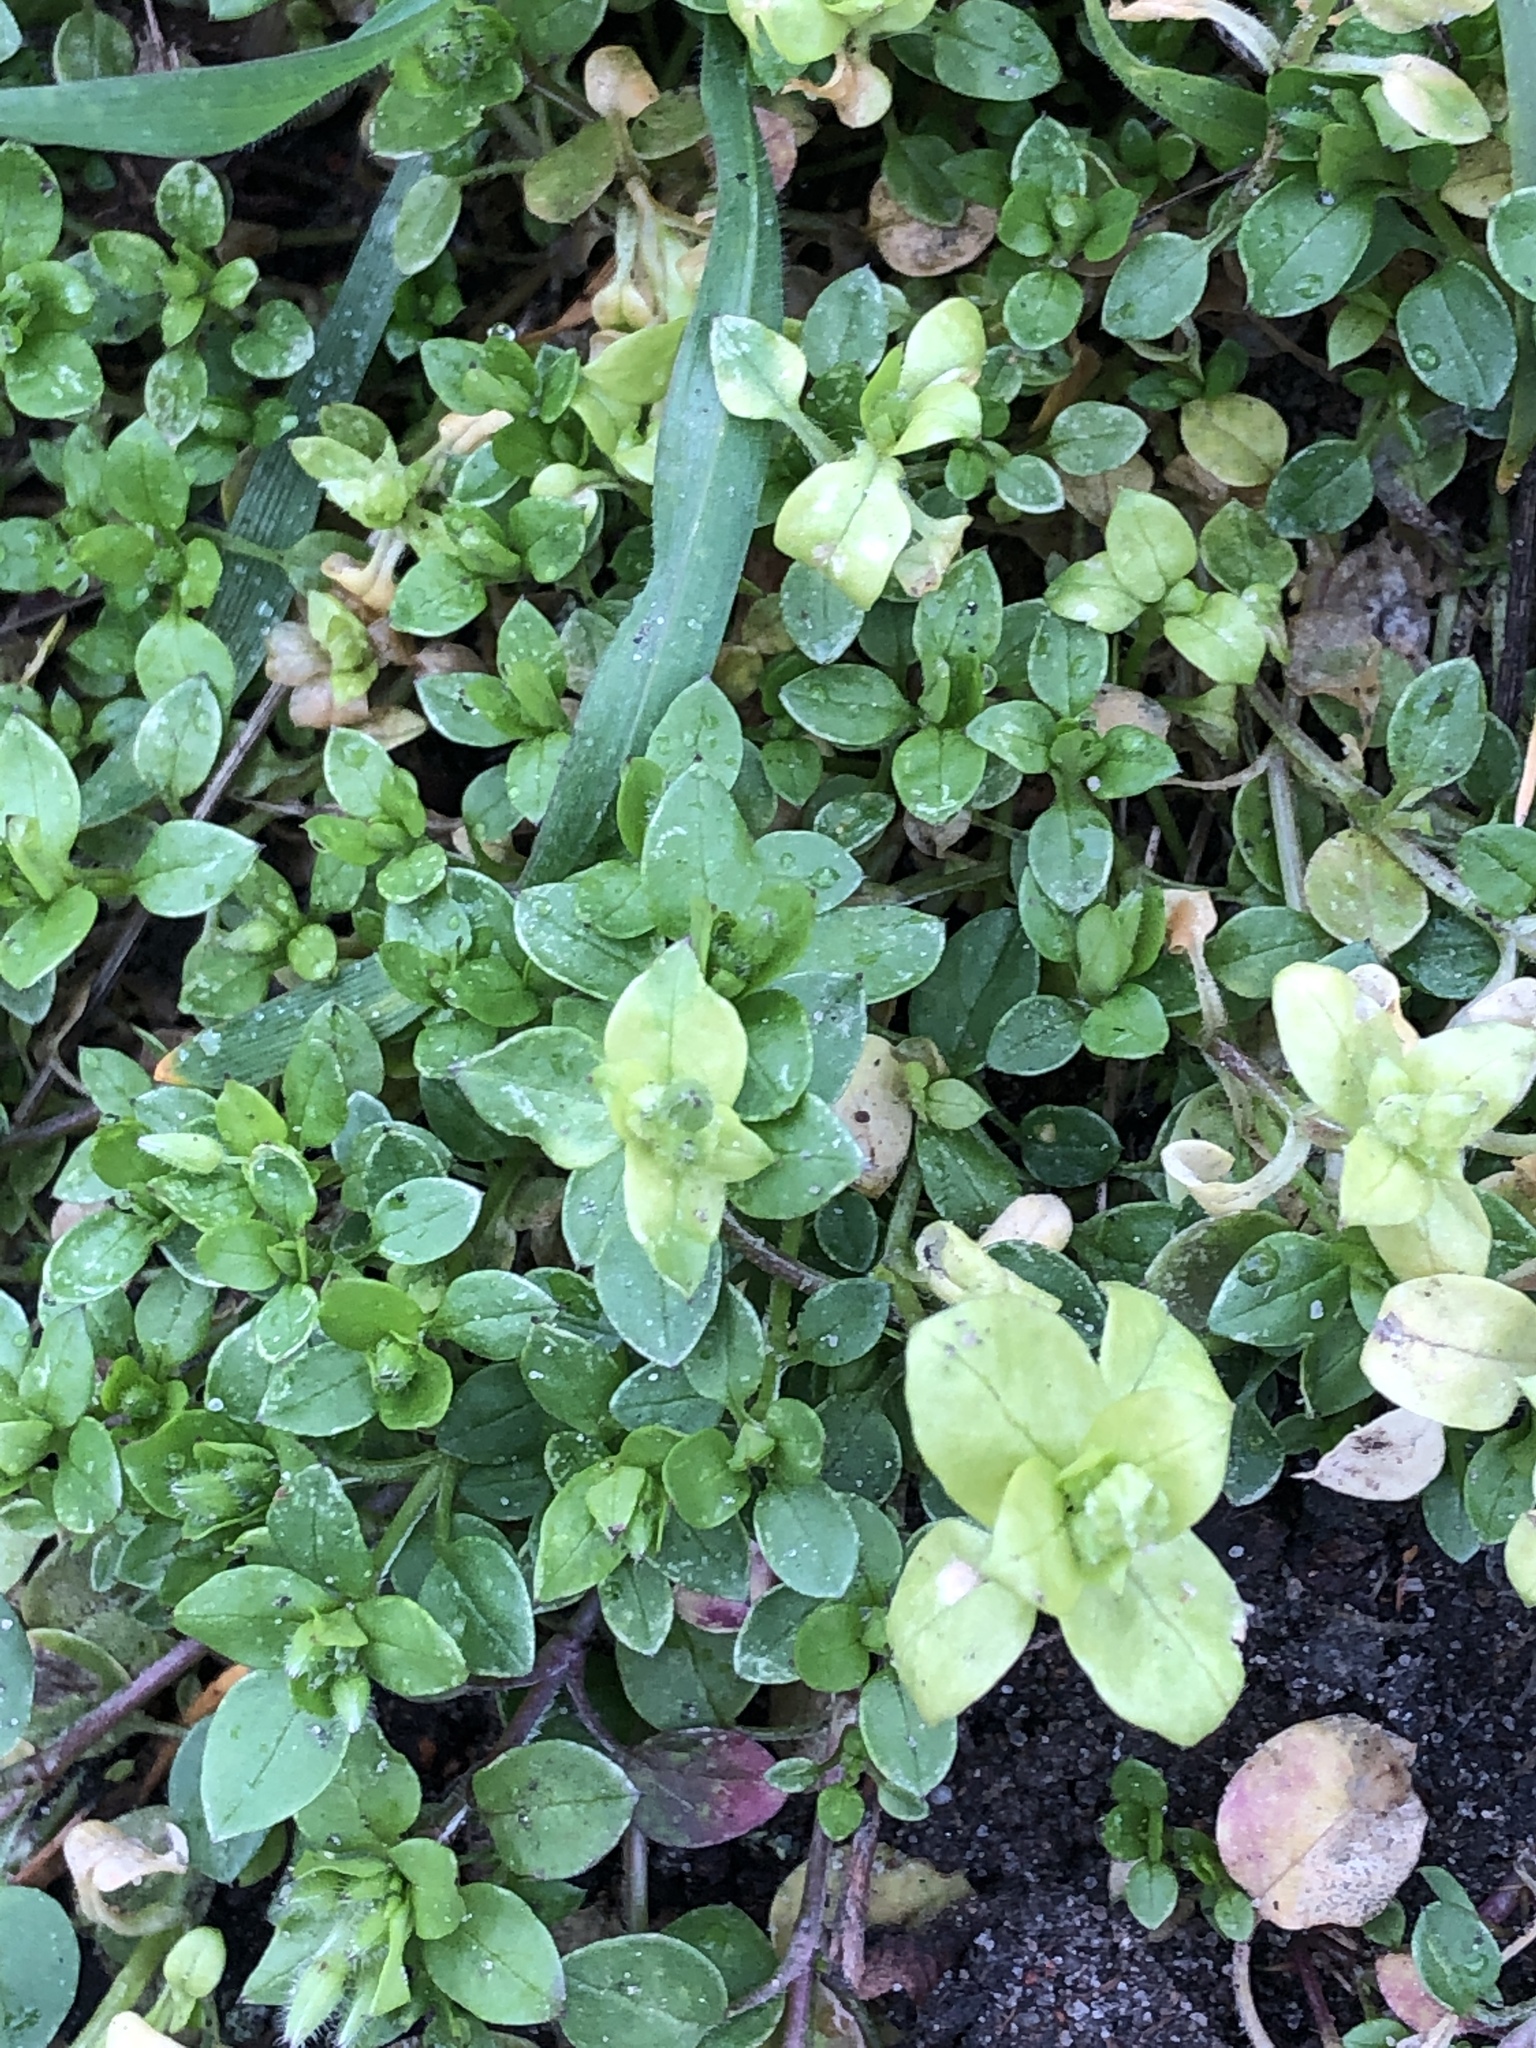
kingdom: Plantae
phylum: Tracheophyta
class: Magnoliopsida
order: Caryophyllales
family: Caryophyllaceae
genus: Stellaria
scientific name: Stellaria media
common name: Common chickweed
